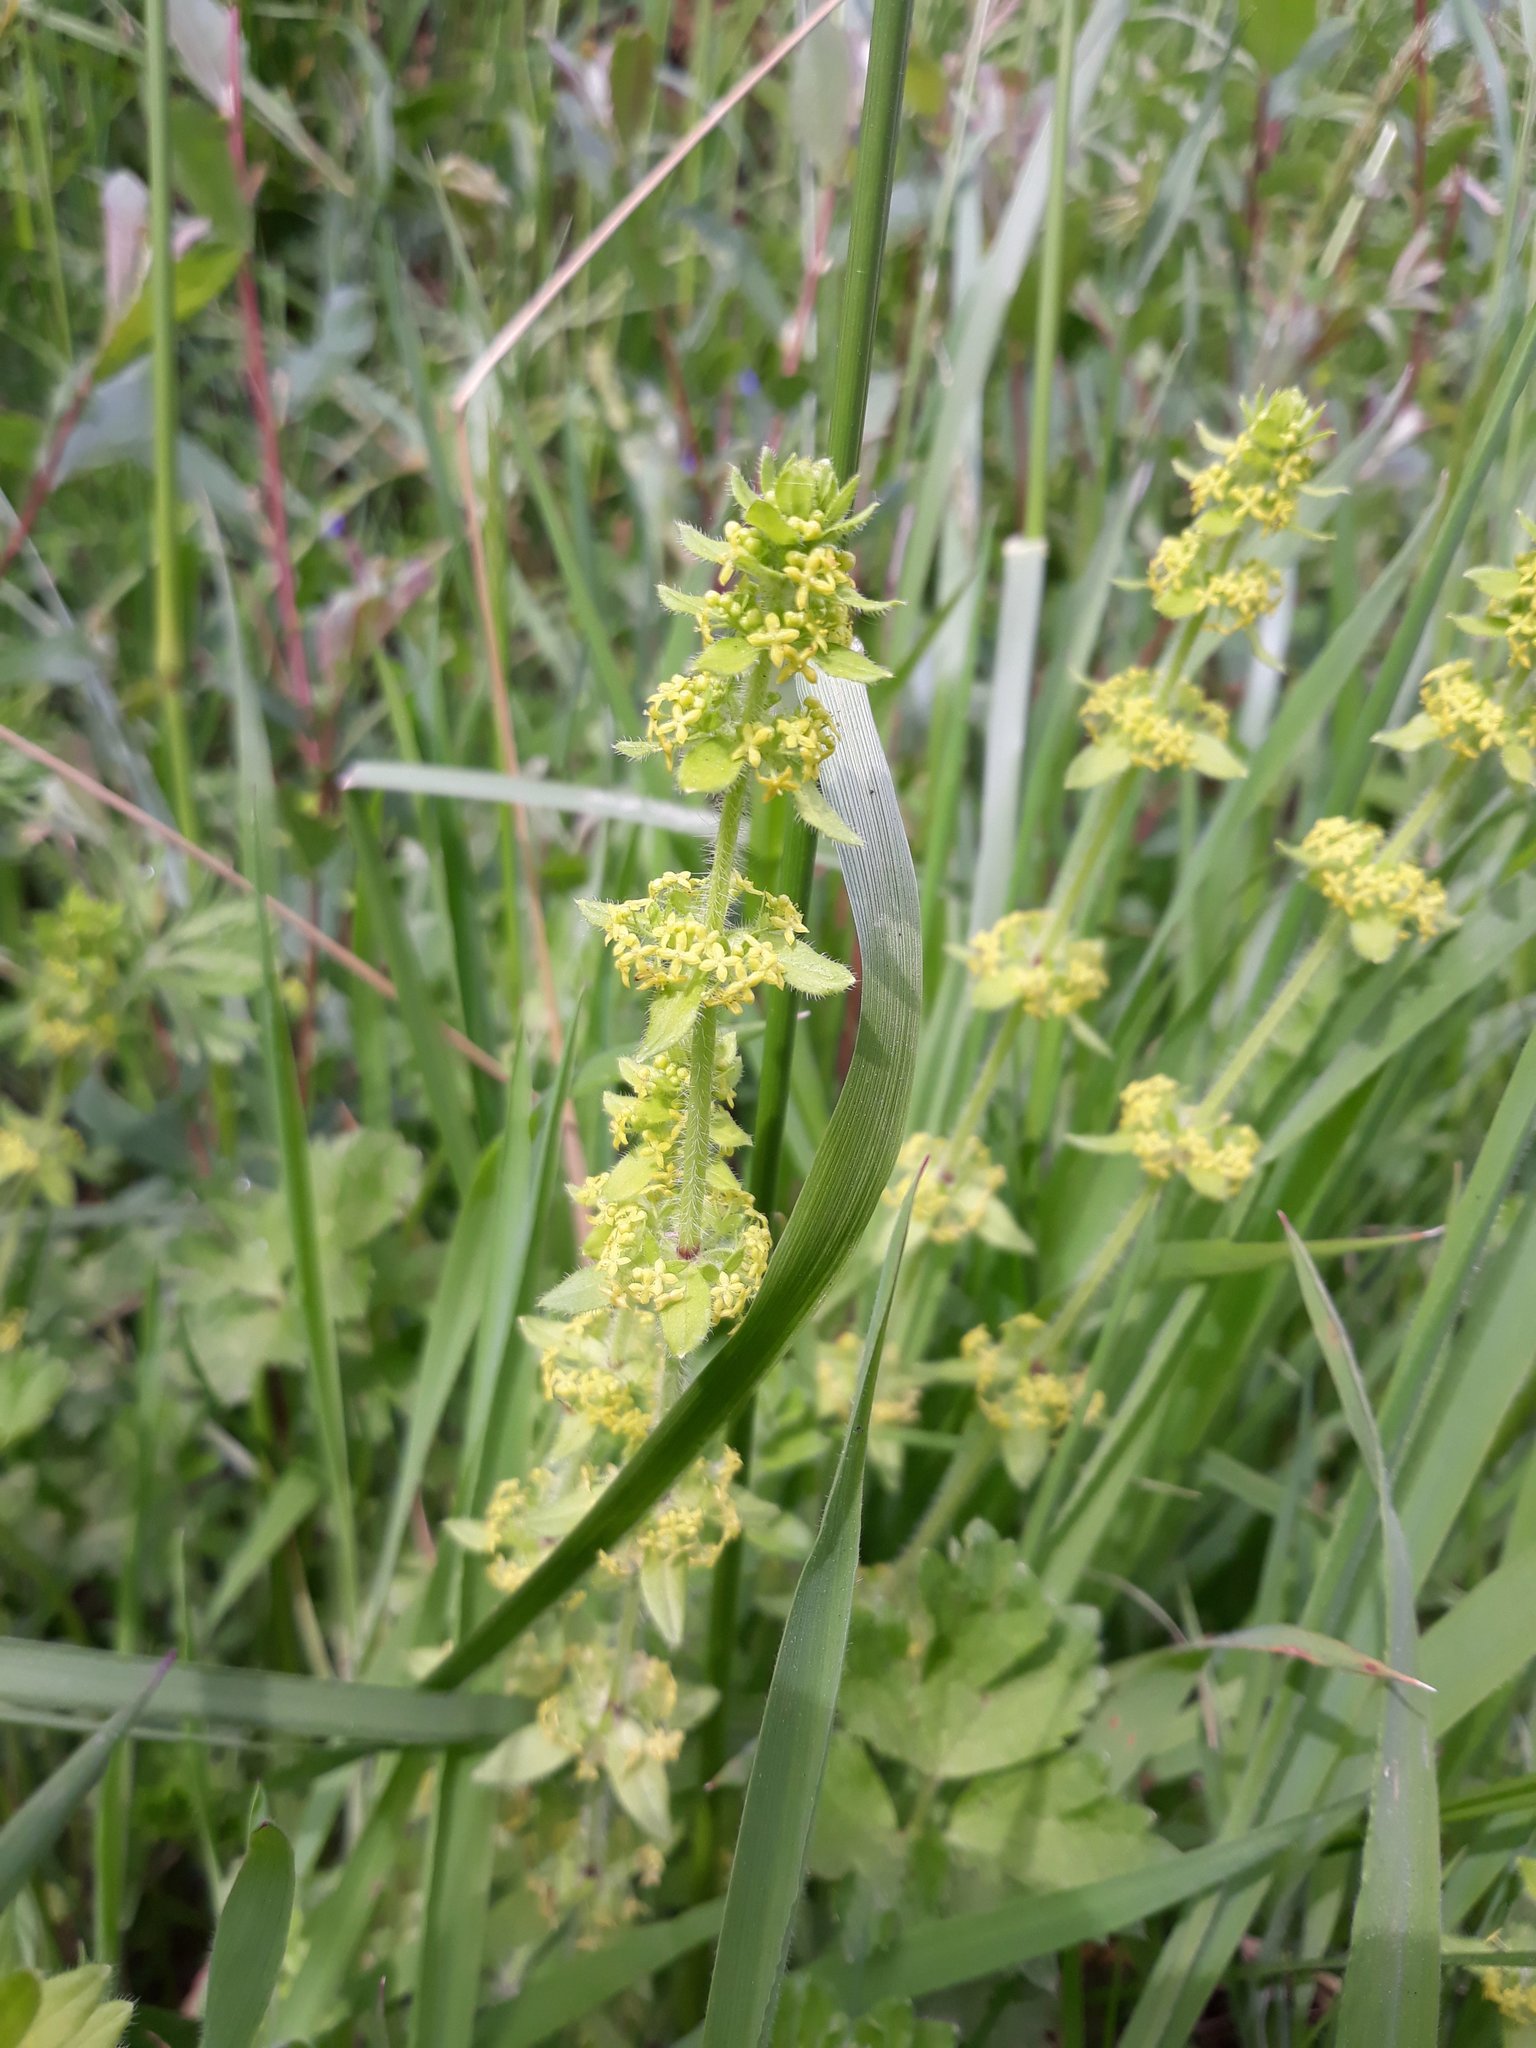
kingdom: Plantae
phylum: Tracheophyta
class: Magnoliopsida
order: Gentianales
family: Rubiaceae
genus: Cruciata
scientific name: Cruciata laevipes
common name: Crosswort
